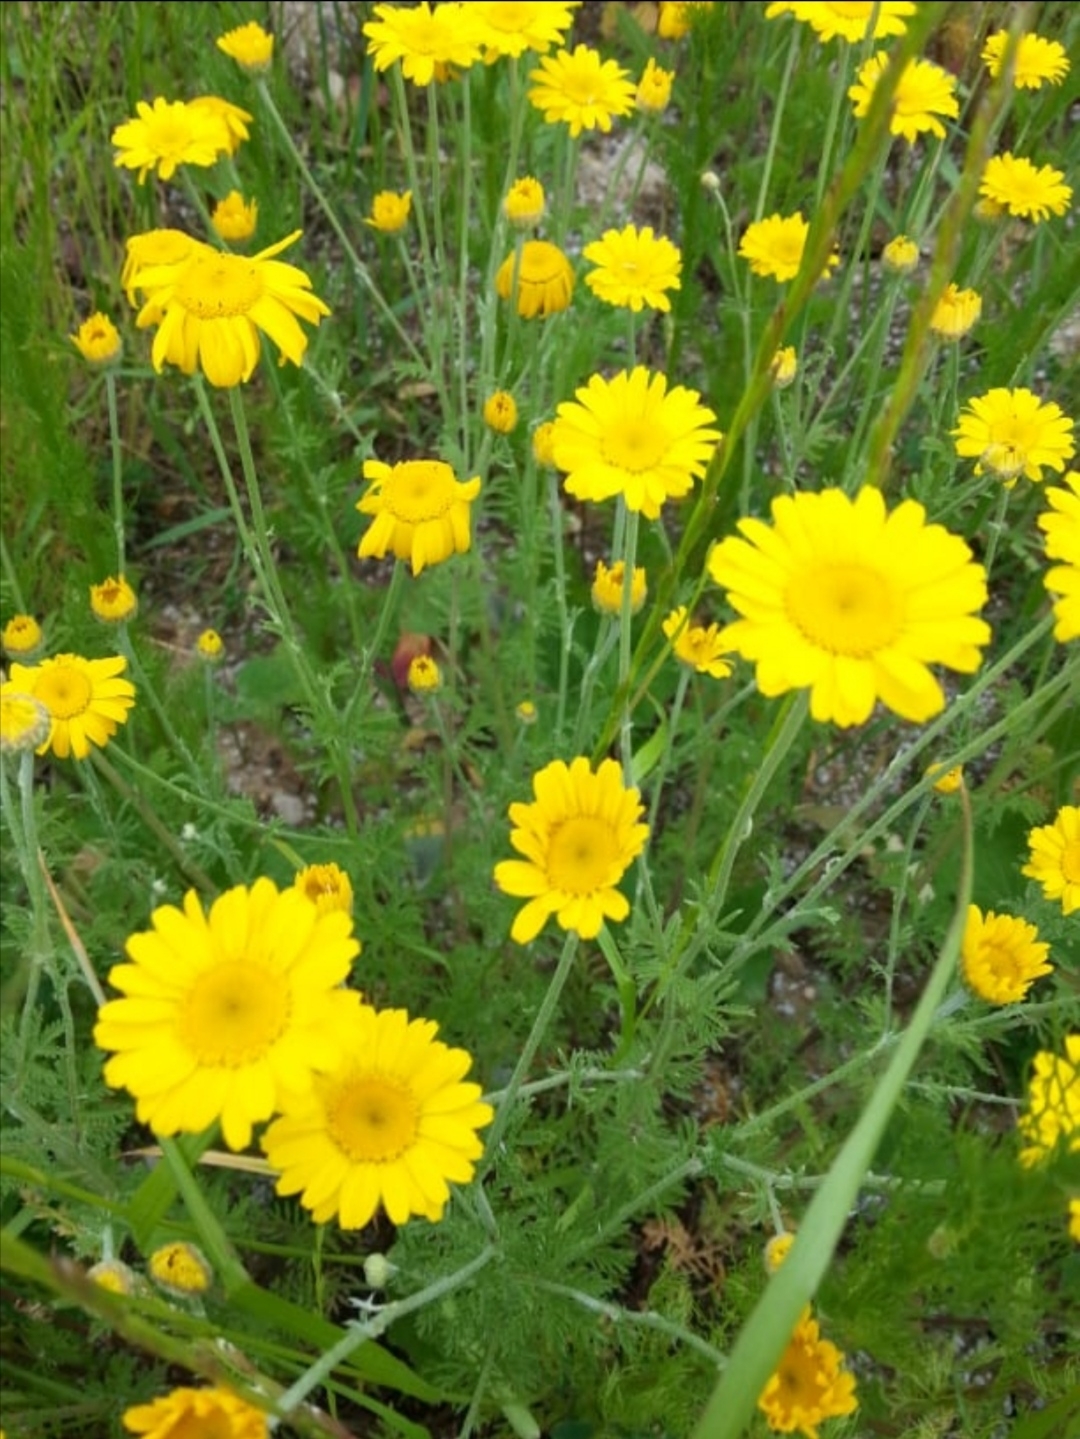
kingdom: Plantae
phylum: Tracheophyta
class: Magnoliopsida
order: Asterales
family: Asteraceae
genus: Cota
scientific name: Cota tinctoria
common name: Golden chamomile
